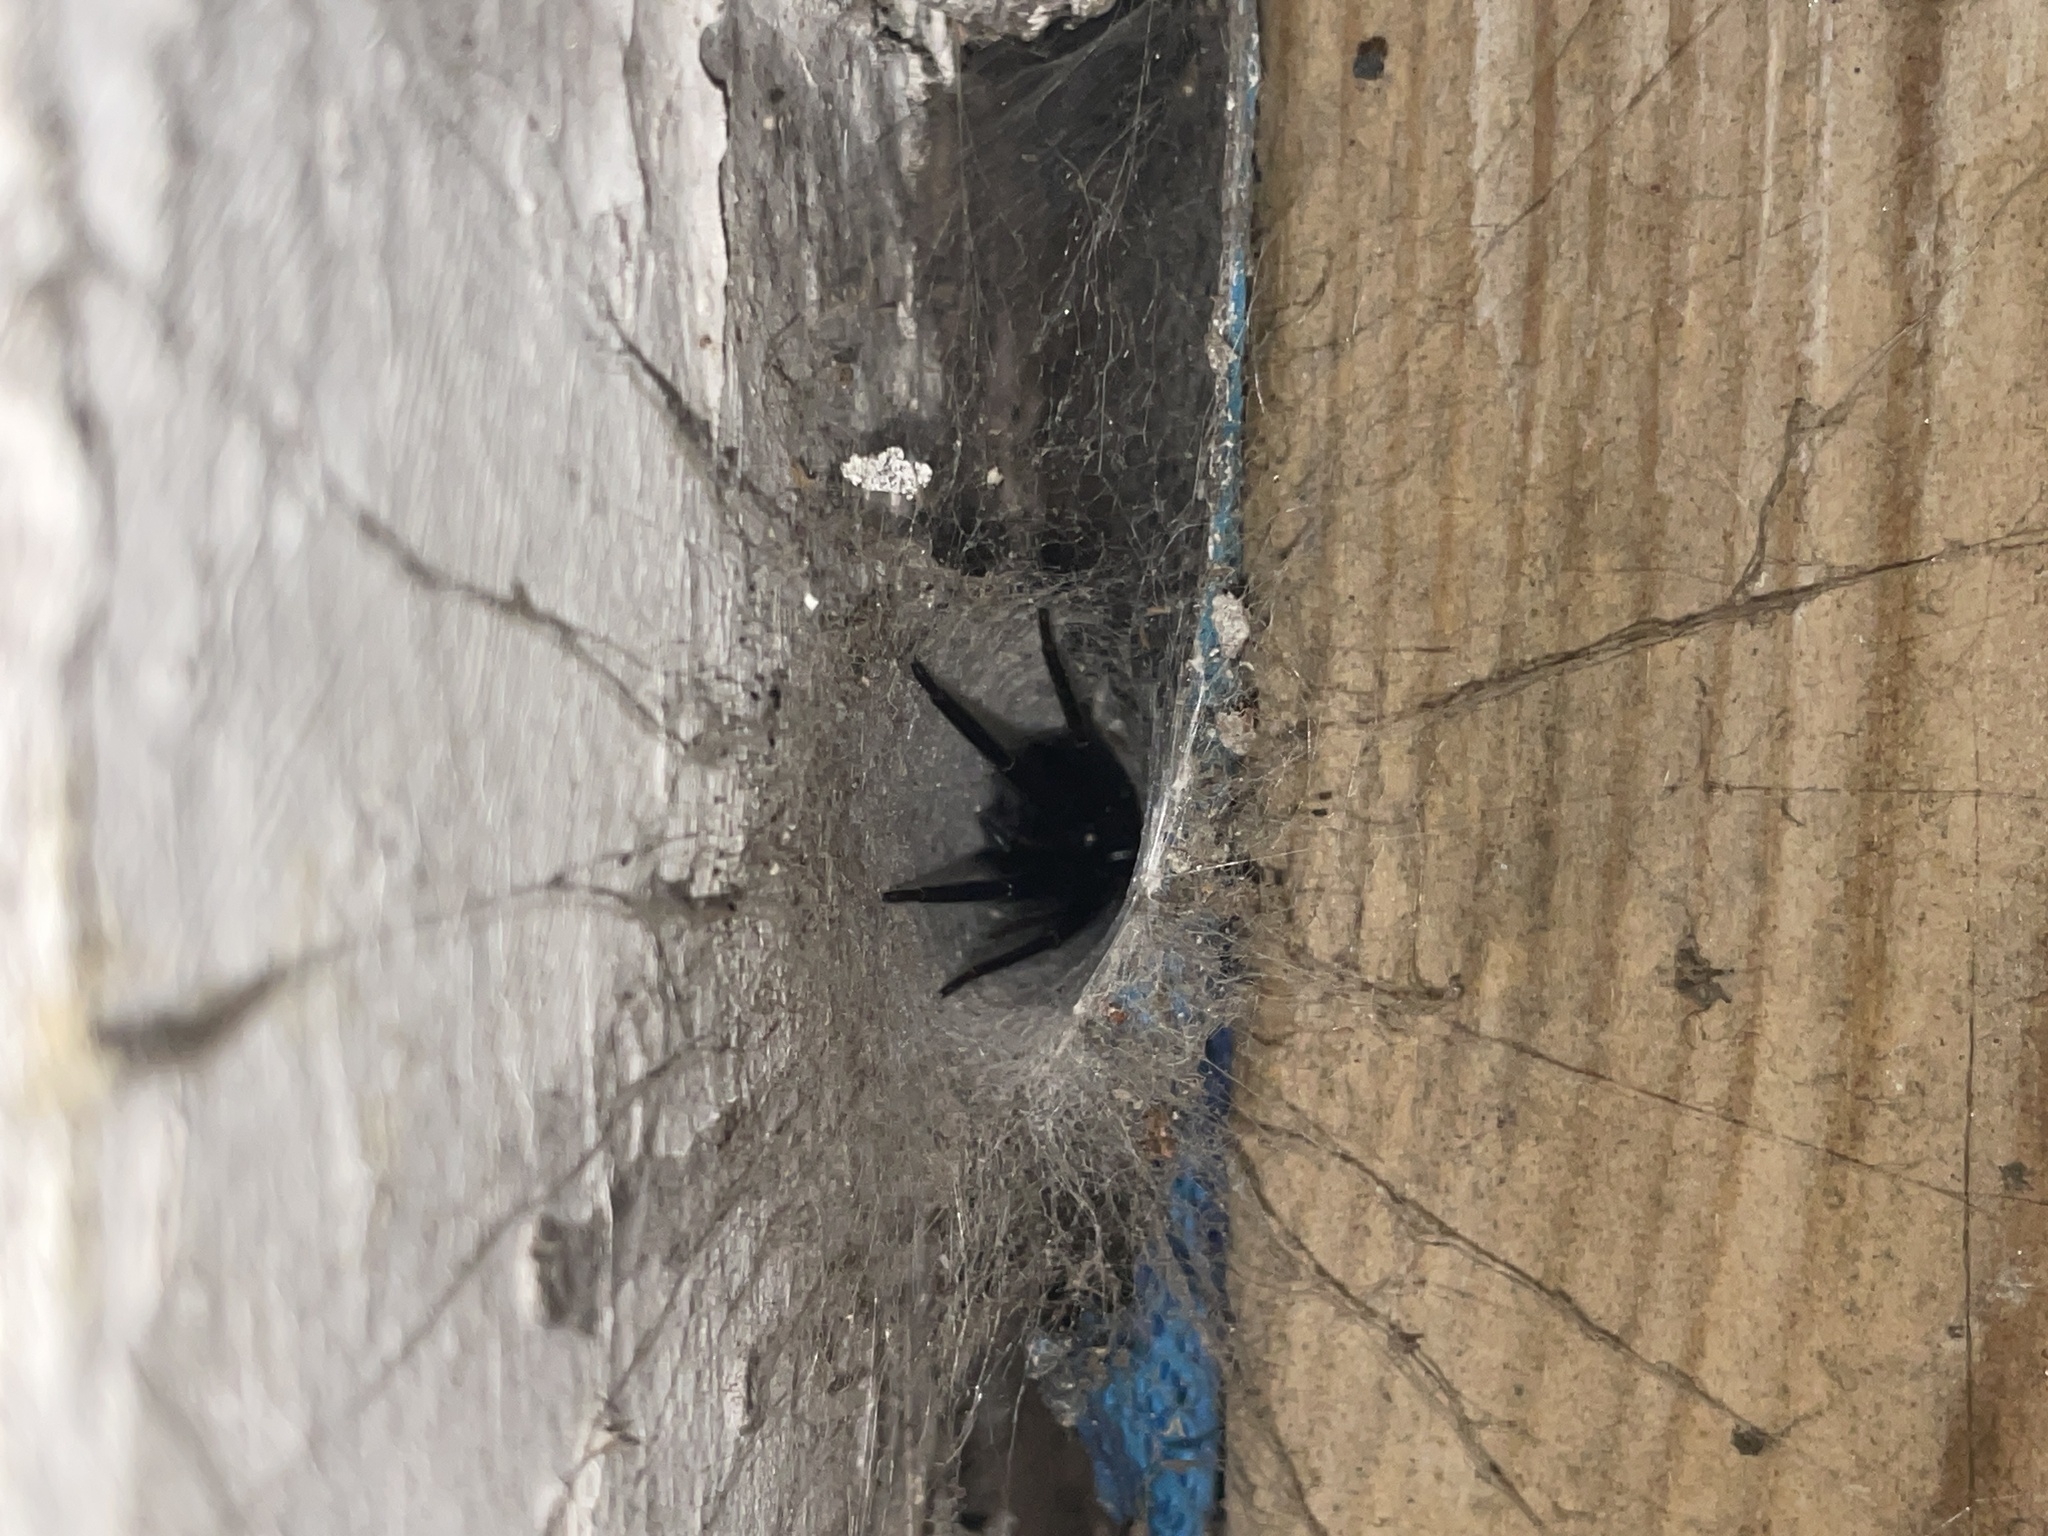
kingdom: Animalia
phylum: Arthropoda
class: Arachnida
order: Araneae
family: Segestriidae
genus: Segestria
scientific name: Segestria florentina
